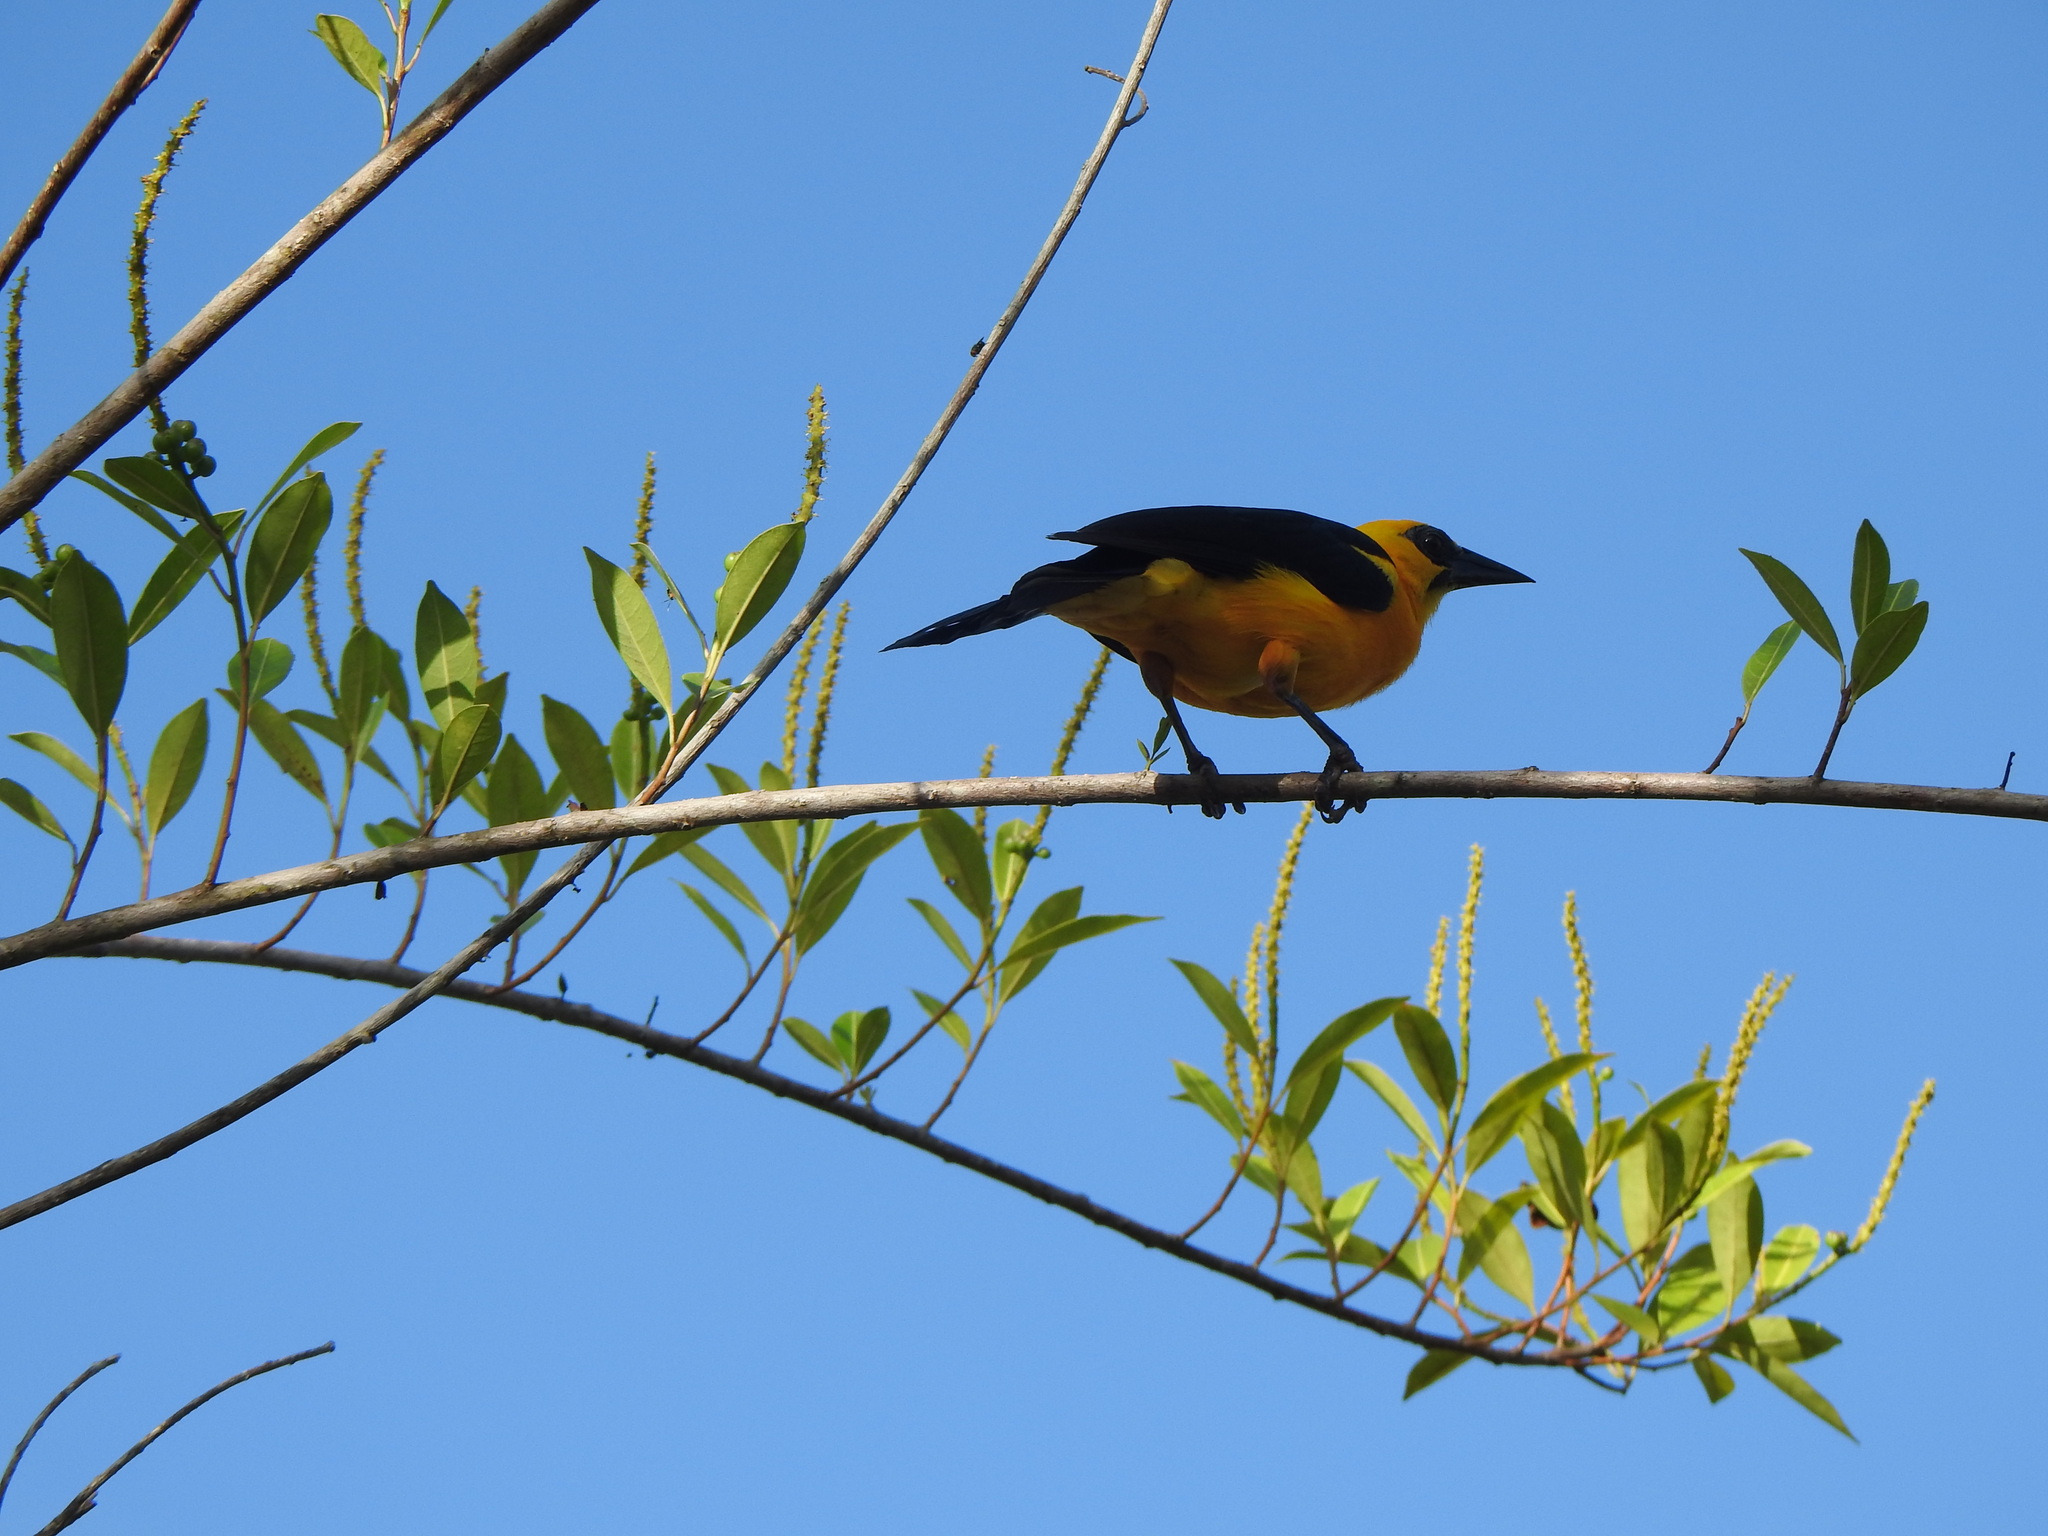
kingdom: Animalia
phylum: Chordata
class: Aves
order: Passeriformes
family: Icteridae
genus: Gymnomystax
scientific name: Gymnomystax mexicanus
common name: Oriole blackbird
